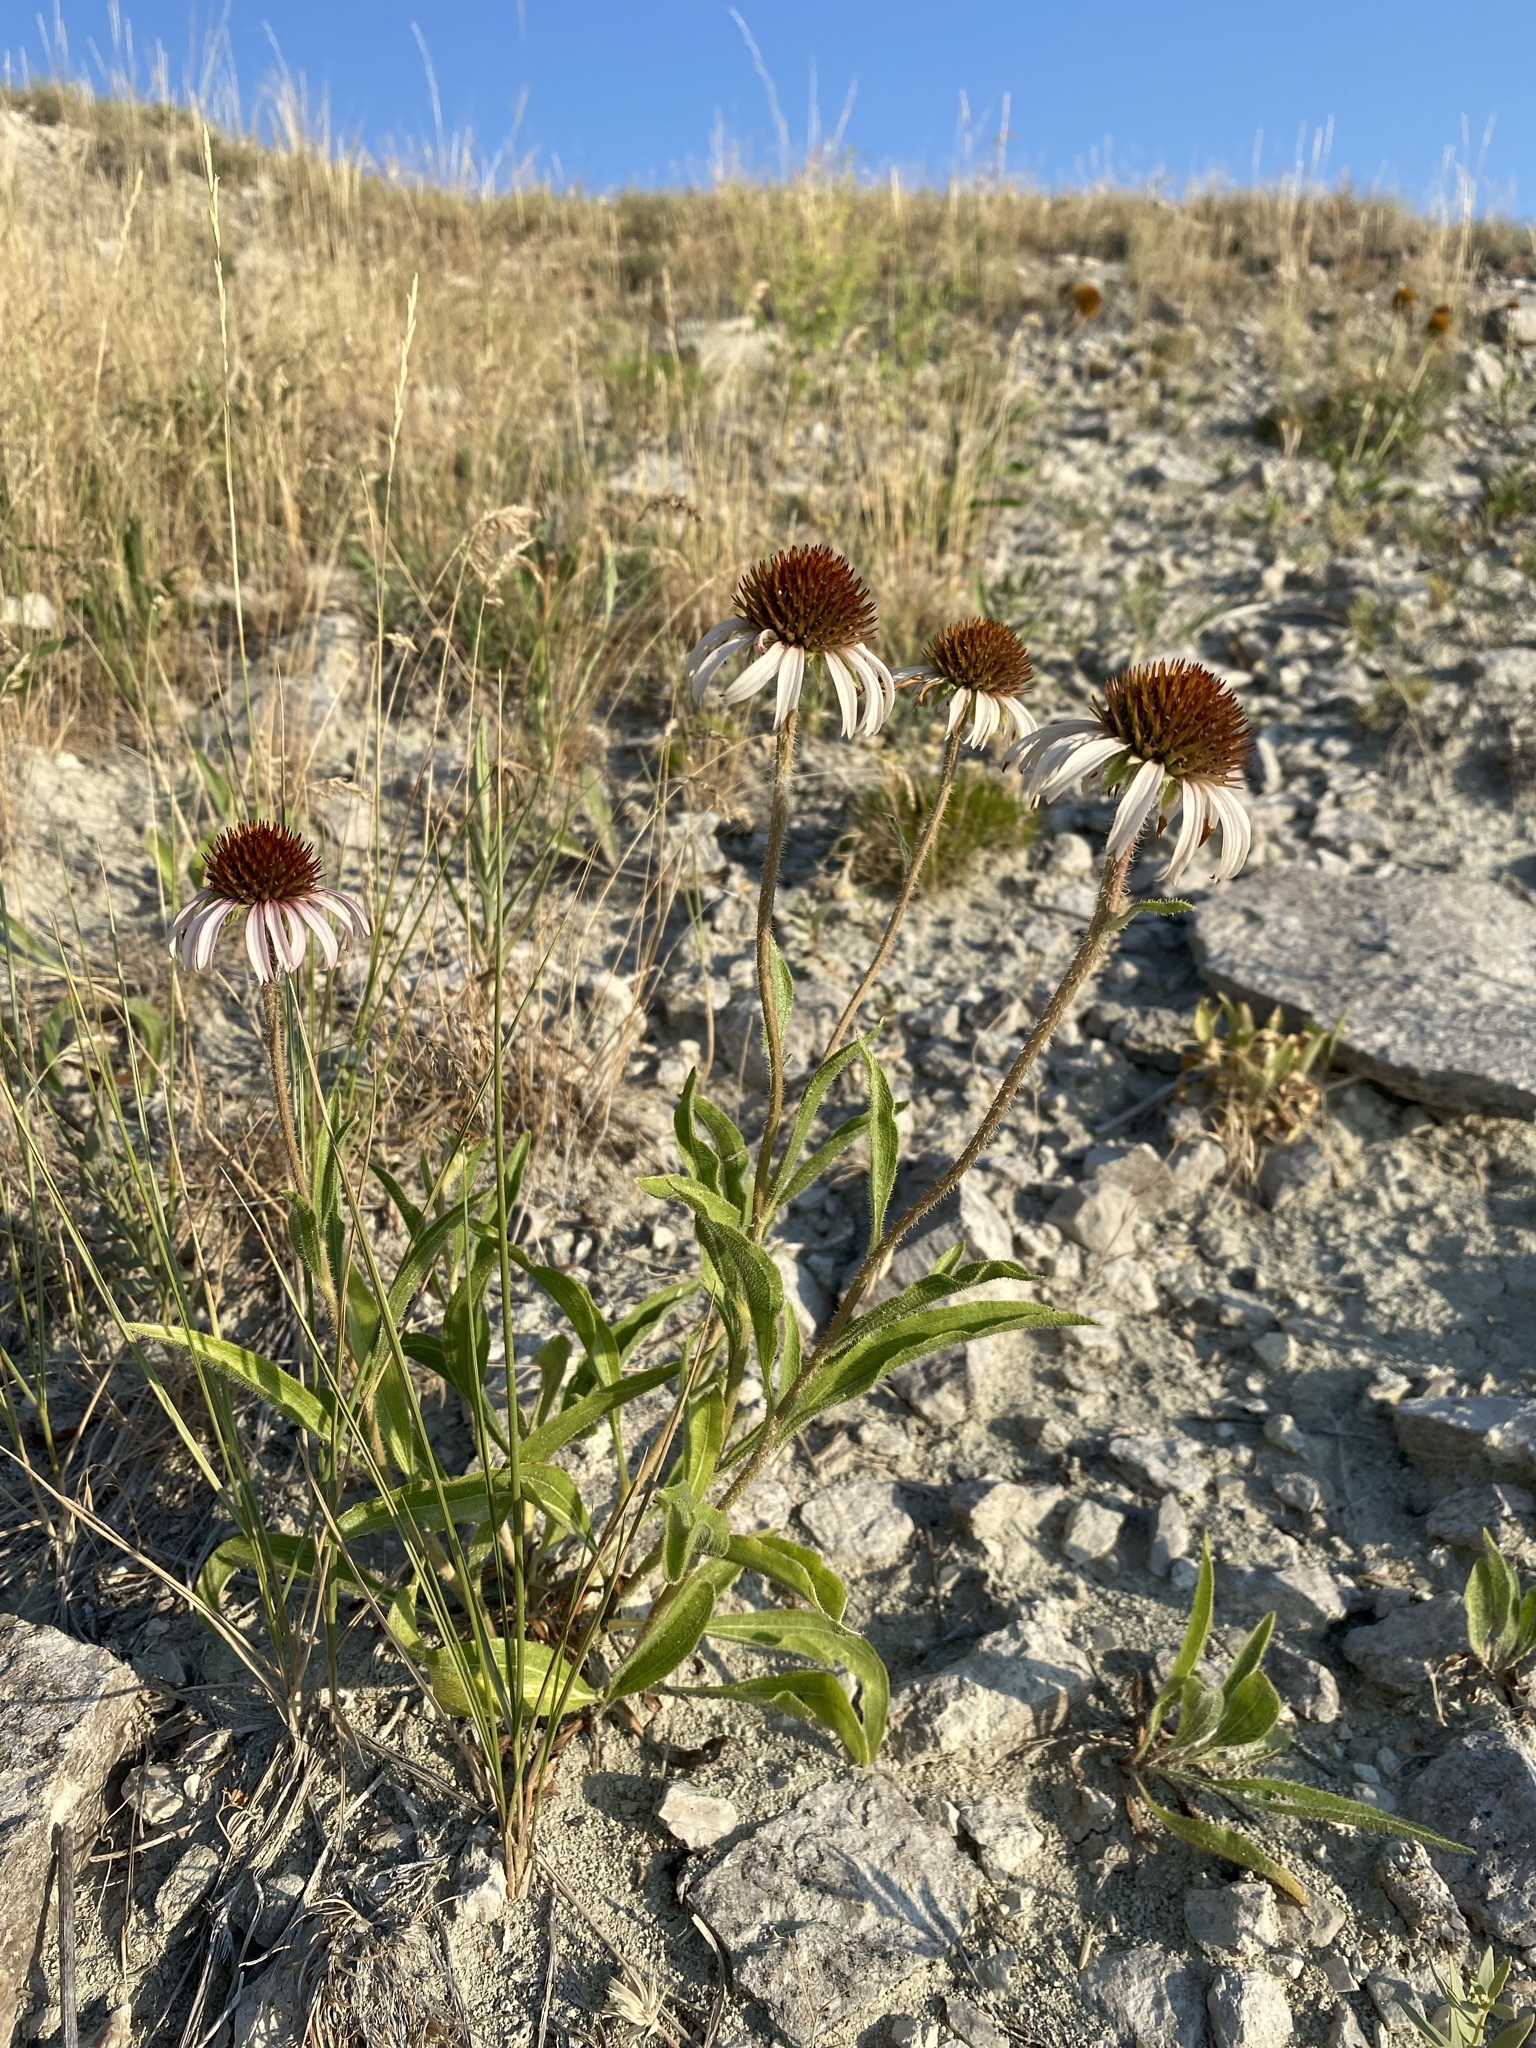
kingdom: Plantae
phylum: Tracheophyta
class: Magnoliopsida
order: Asterales
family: Asteraceae
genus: Echinacea
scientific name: Echinacea angustifolia
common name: Black-sampson echinacea
